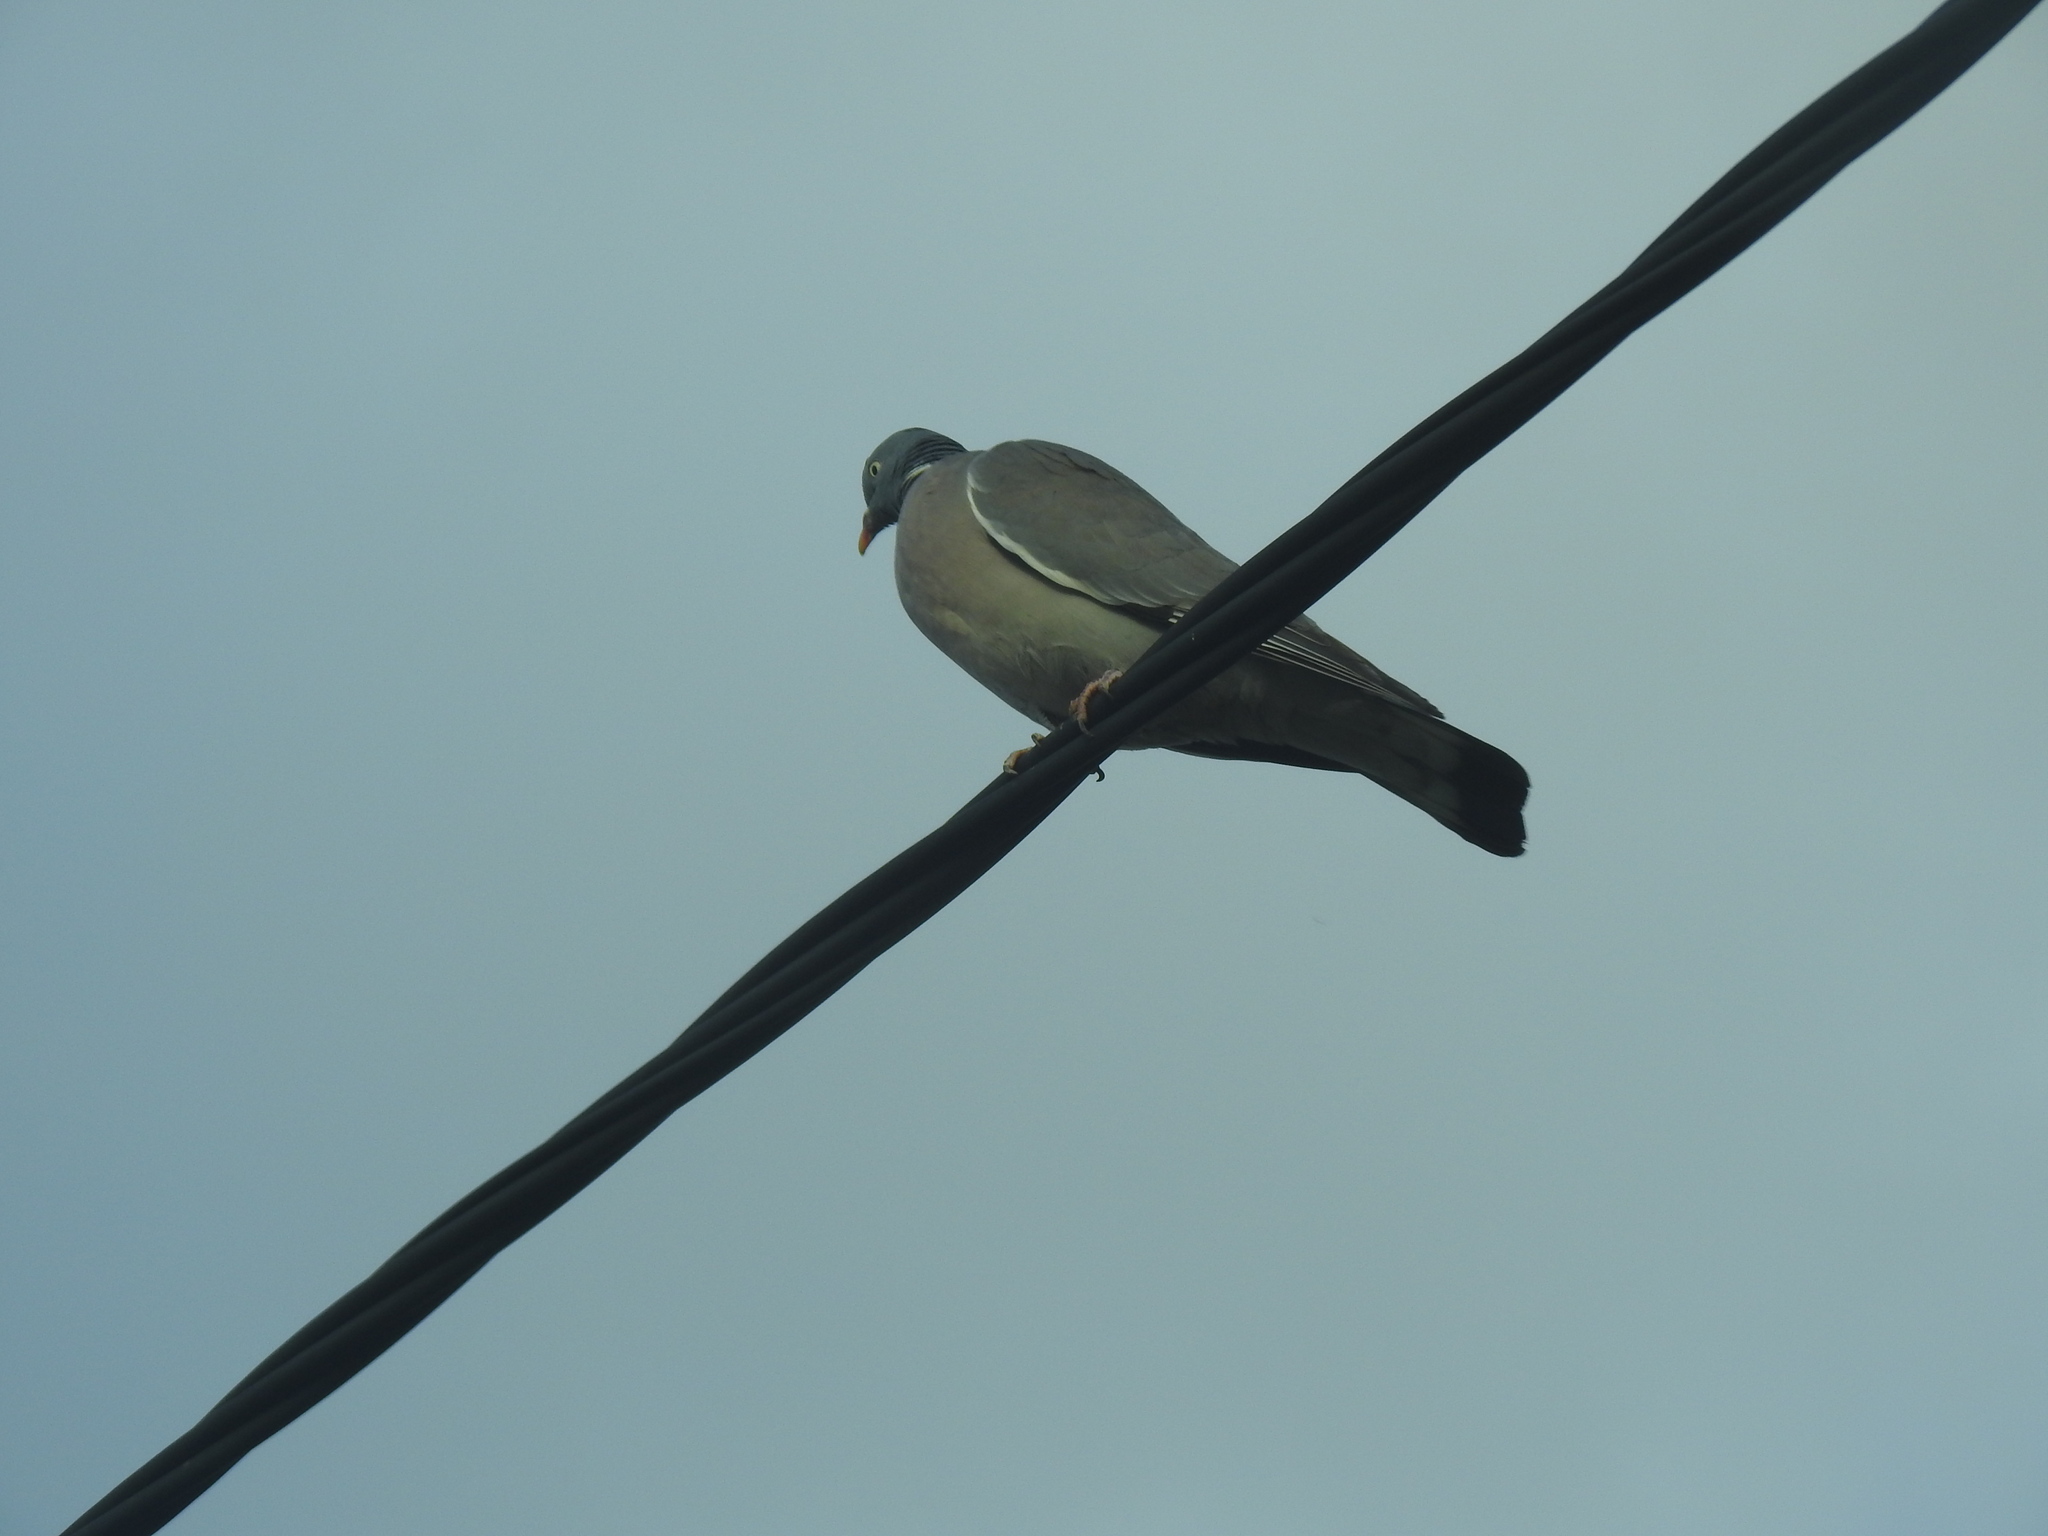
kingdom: Animalia
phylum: Chordata
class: Aves
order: Columbiformes
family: Columbidae
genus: Columba
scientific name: Columba palumbus
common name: Common wood pigeon
